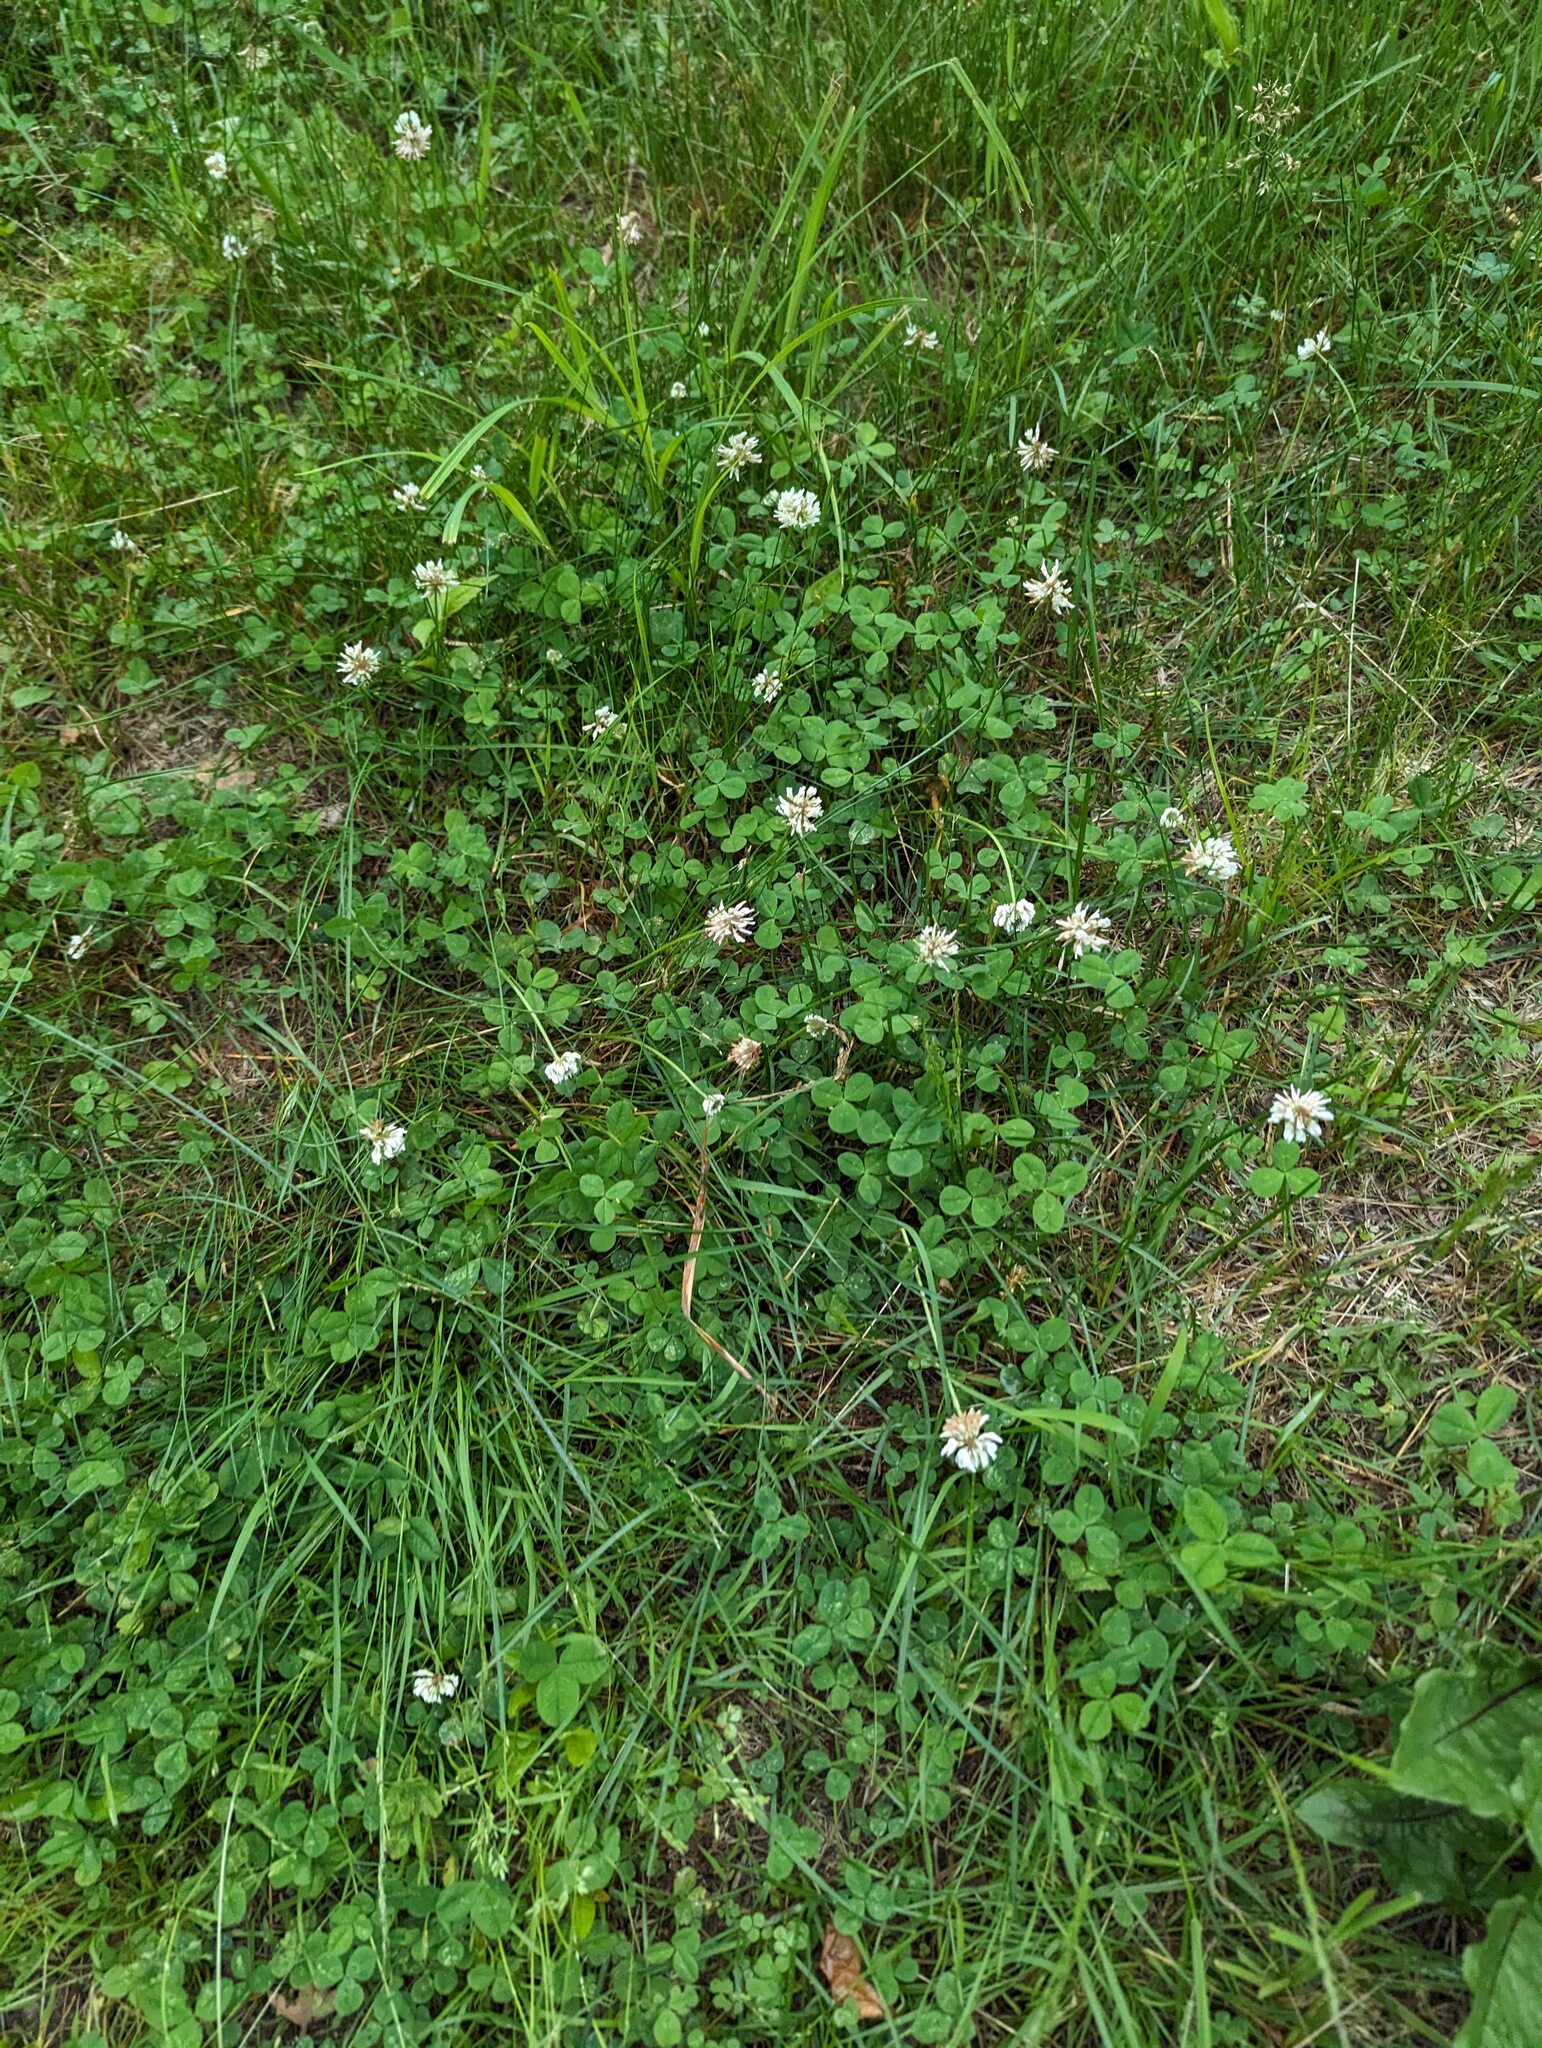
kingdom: Plantae
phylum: Tracheophyta
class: Magnoliopsida
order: Fabales
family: Fabaceae
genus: Trifolium
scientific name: Trifolium repens
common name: White clover
